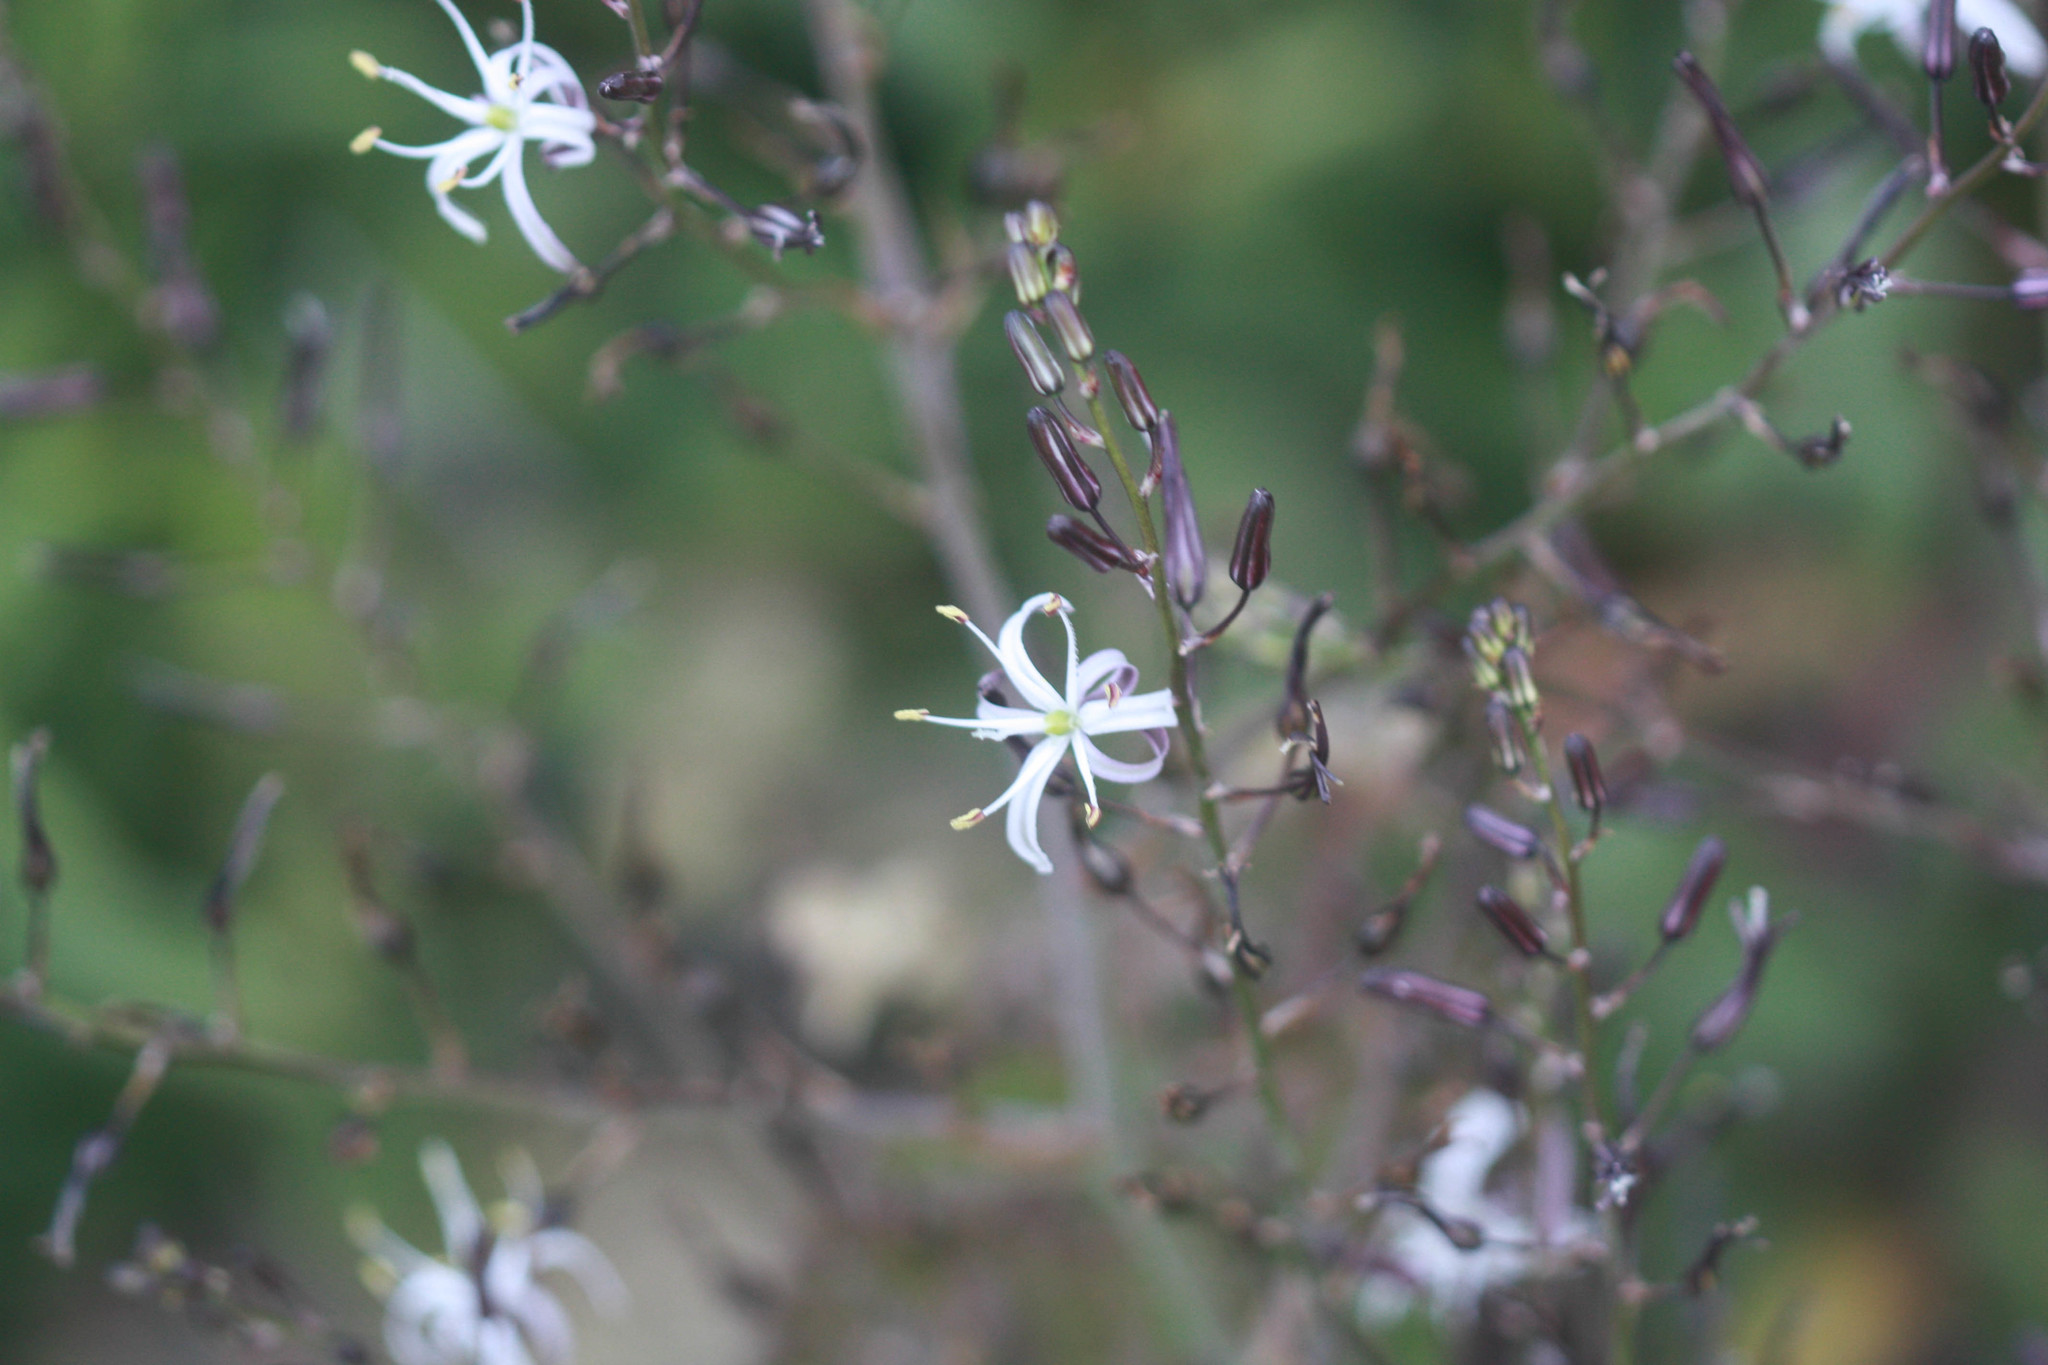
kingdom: Plantae
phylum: Tracheophyta
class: Liliopsida
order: Asparagales
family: Asparagaceae
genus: Chlorogalum
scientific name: Chlorogalum pomeridianum
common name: Amole
